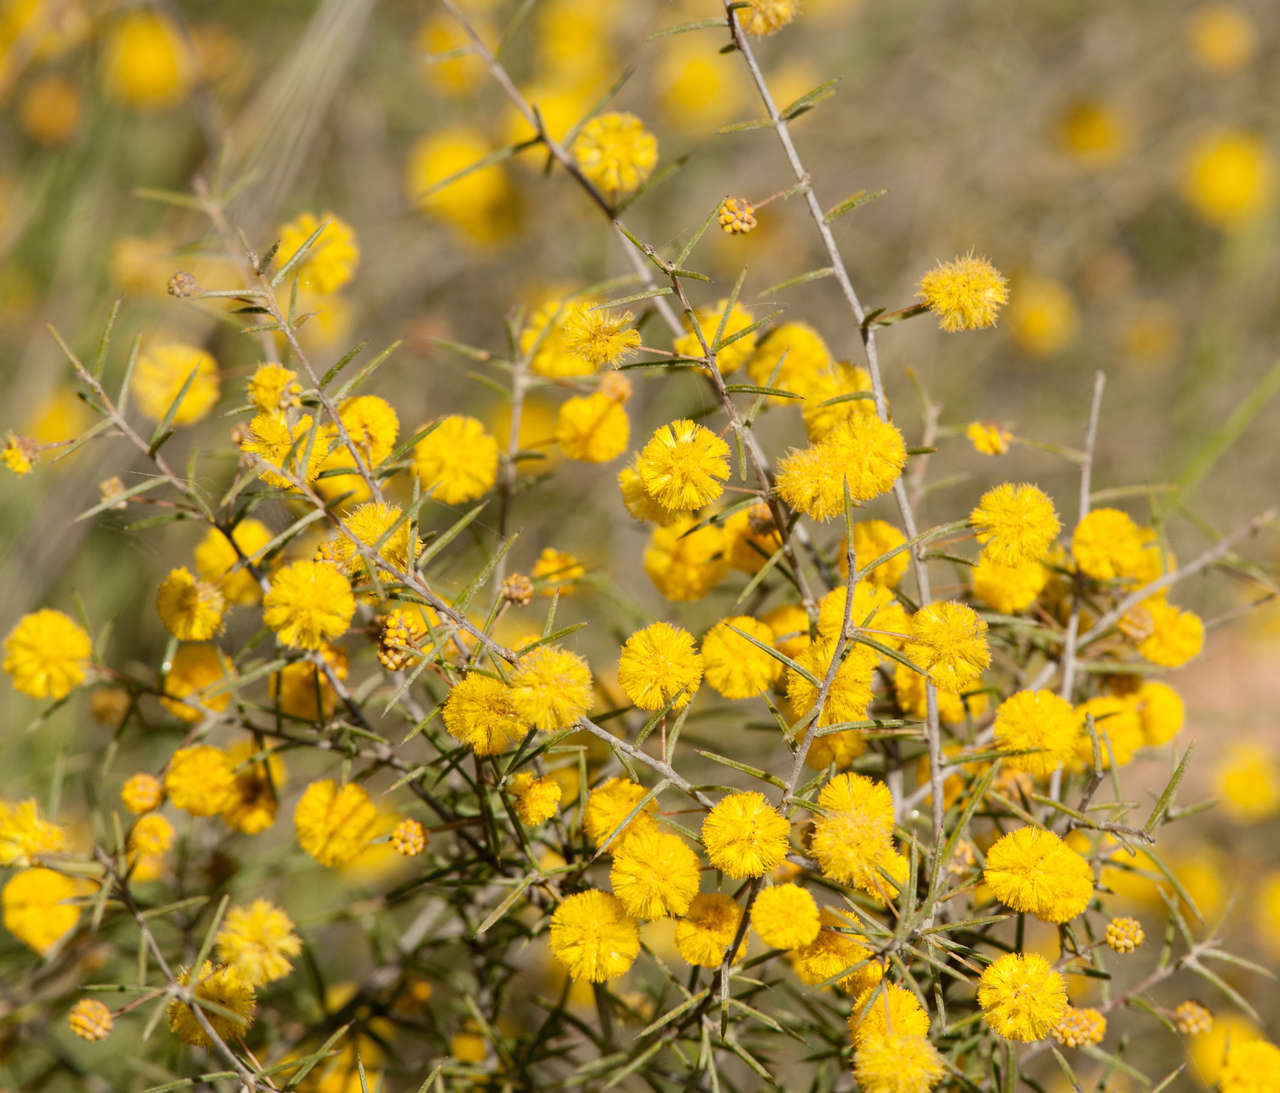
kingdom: Plantae
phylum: Tracheophyta
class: Magnoliopsida
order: Fabales
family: Fabaceae
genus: Acacia
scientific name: Acacia brownii
